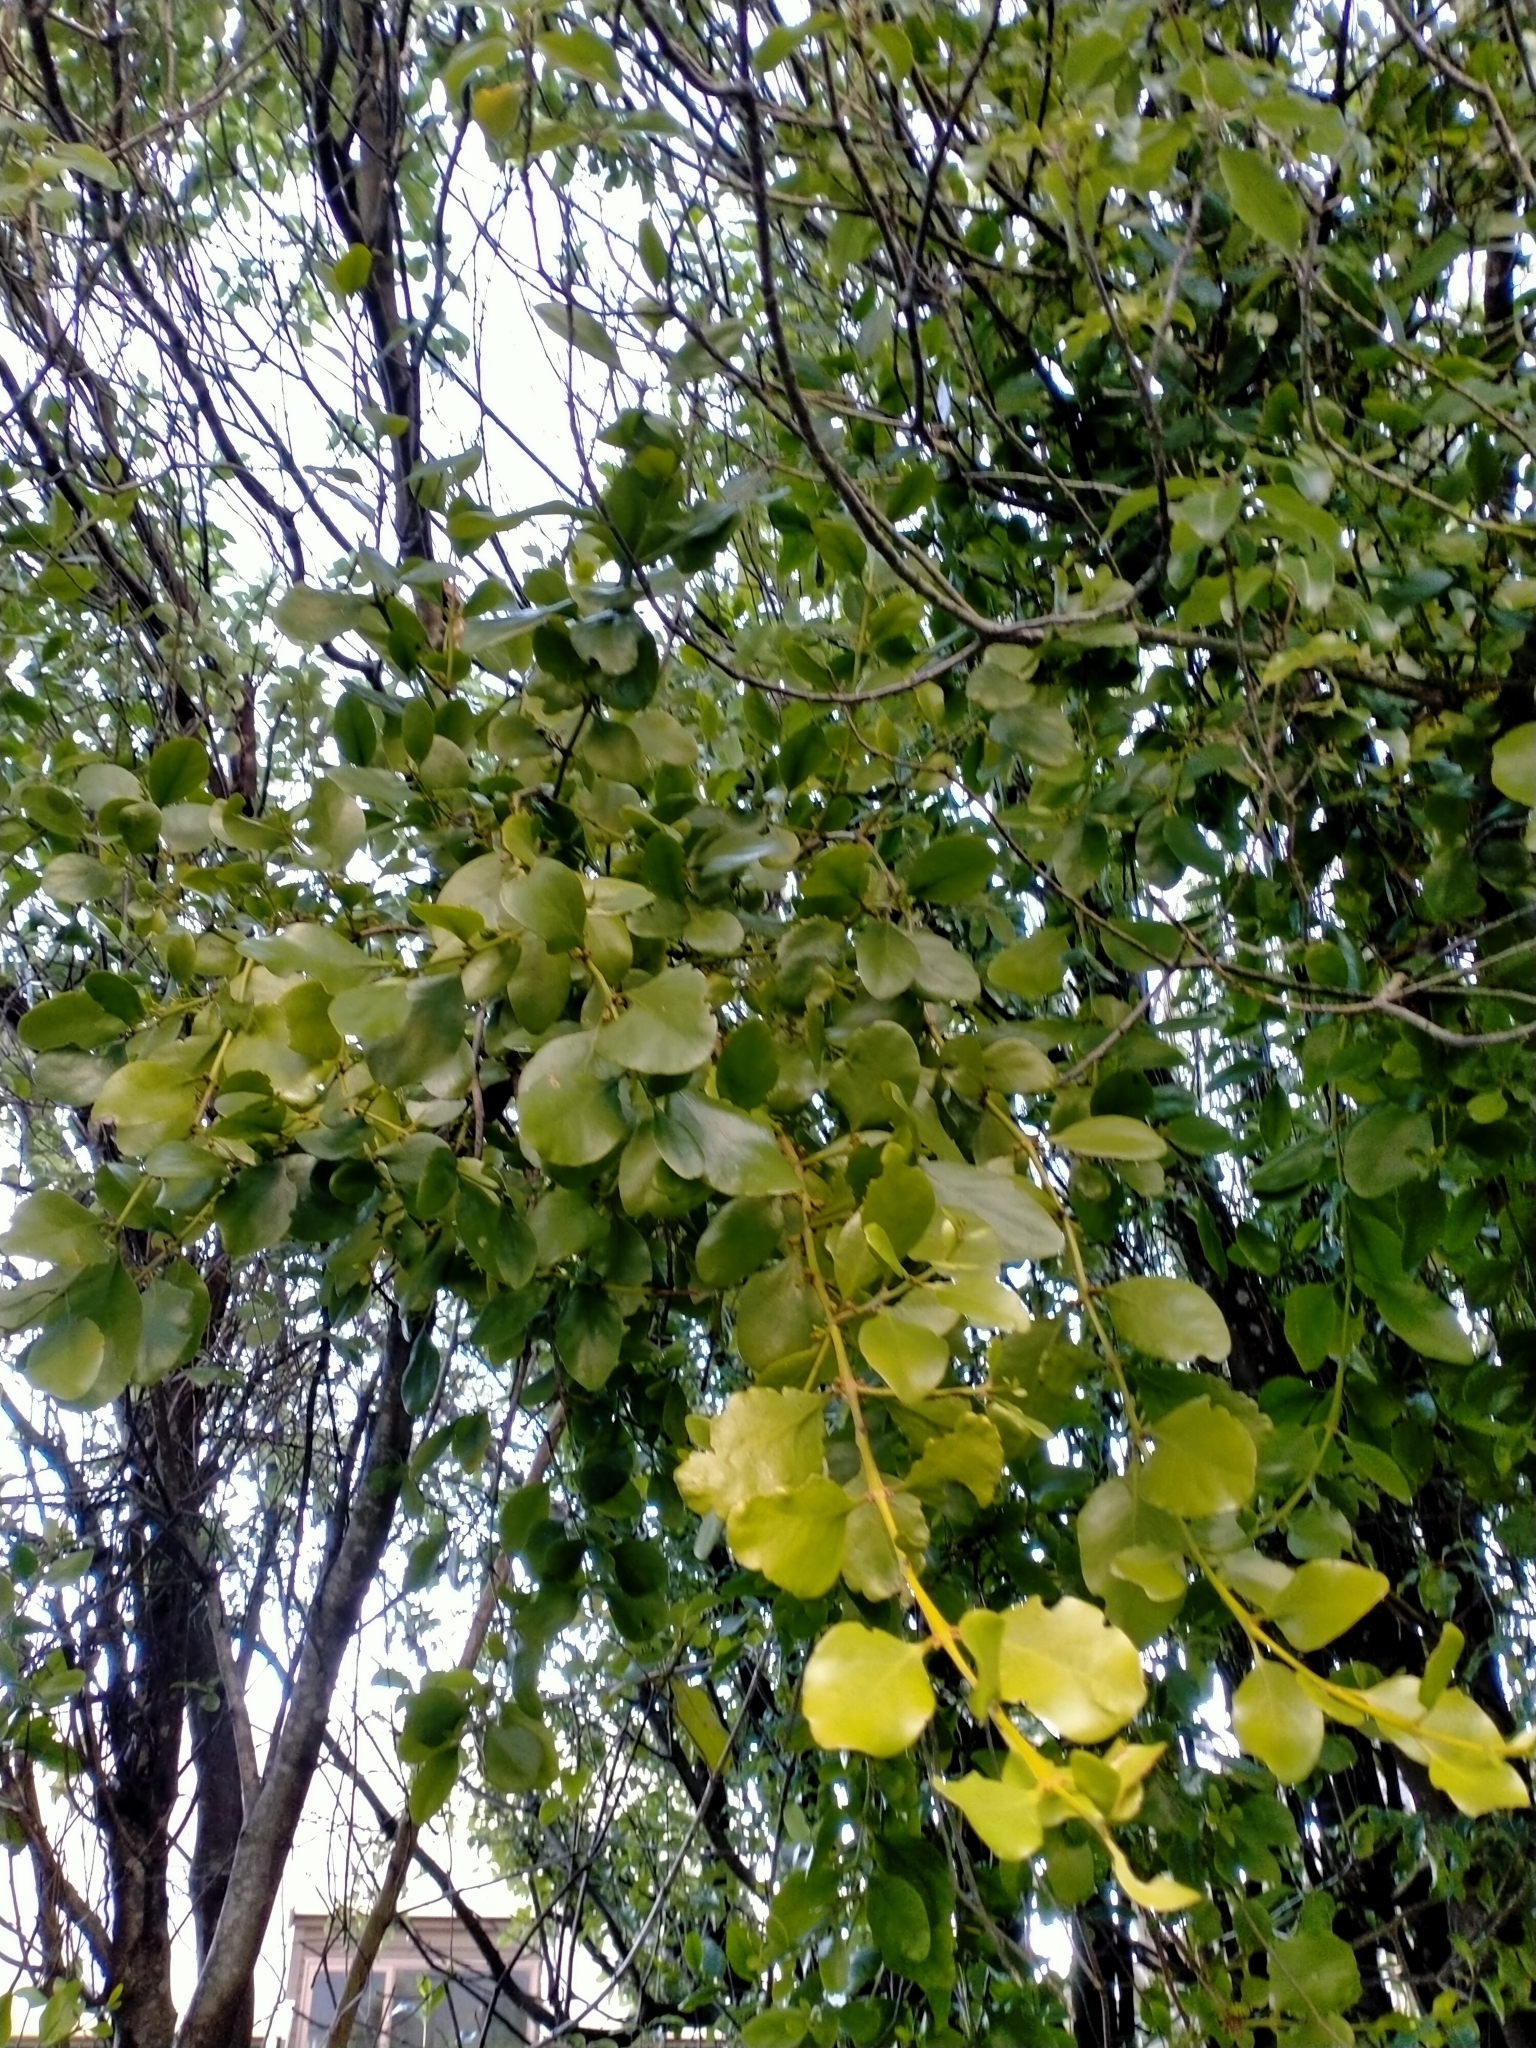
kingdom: Plantae
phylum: Tracheophyta
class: Magnoliopsida
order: Santalales
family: Loranthaceae
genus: Ileostylus
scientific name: Ileostylus micranthus
